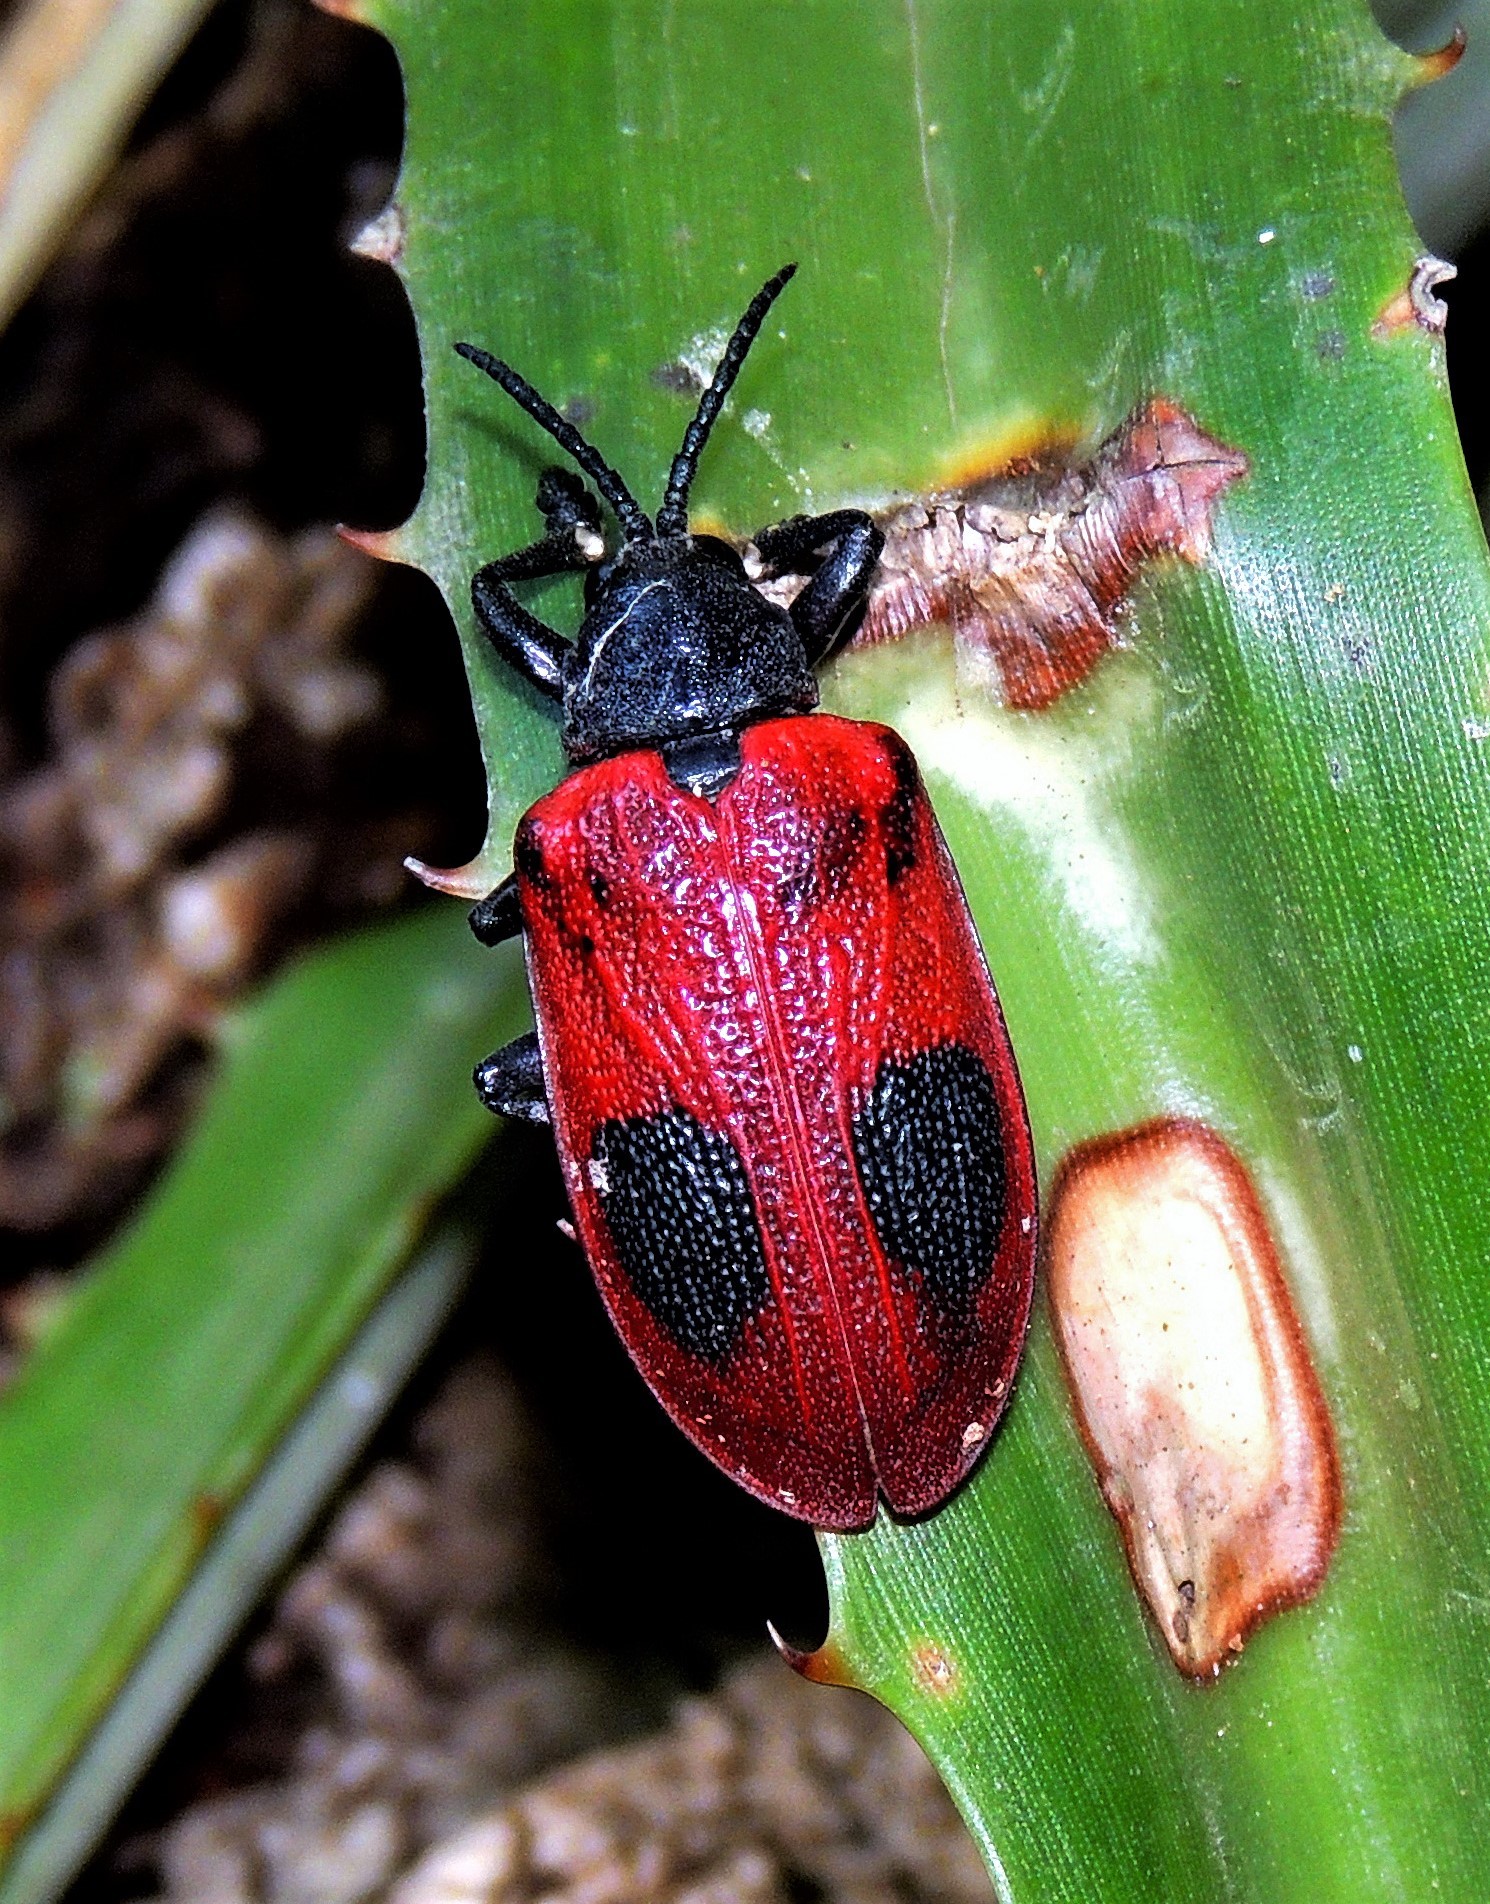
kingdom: Animalia
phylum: Arthropoda
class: Insecta
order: Coleoptera
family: Chrysomelidae
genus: Coraliomela
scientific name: Coraliomela quadrimaculata
